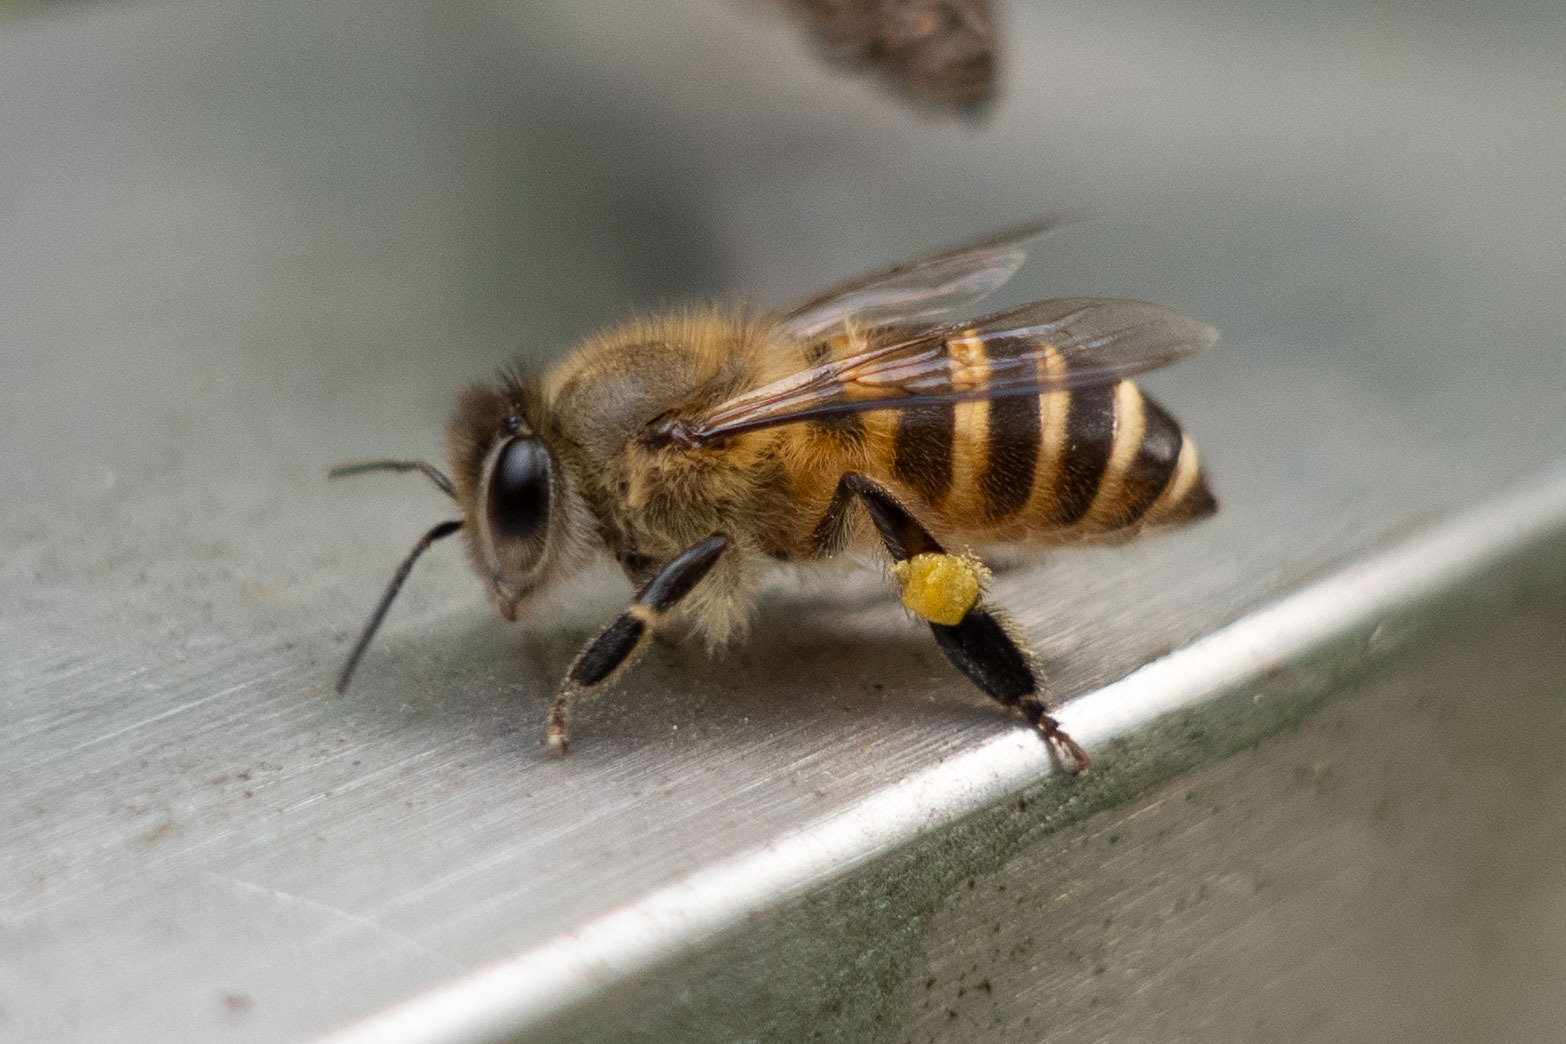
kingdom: Animalia
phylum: Arthropoda
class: Insecta
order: Hymenoptera
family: Apidae
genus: Apis
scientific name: Apis cerana
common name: Honey bee
